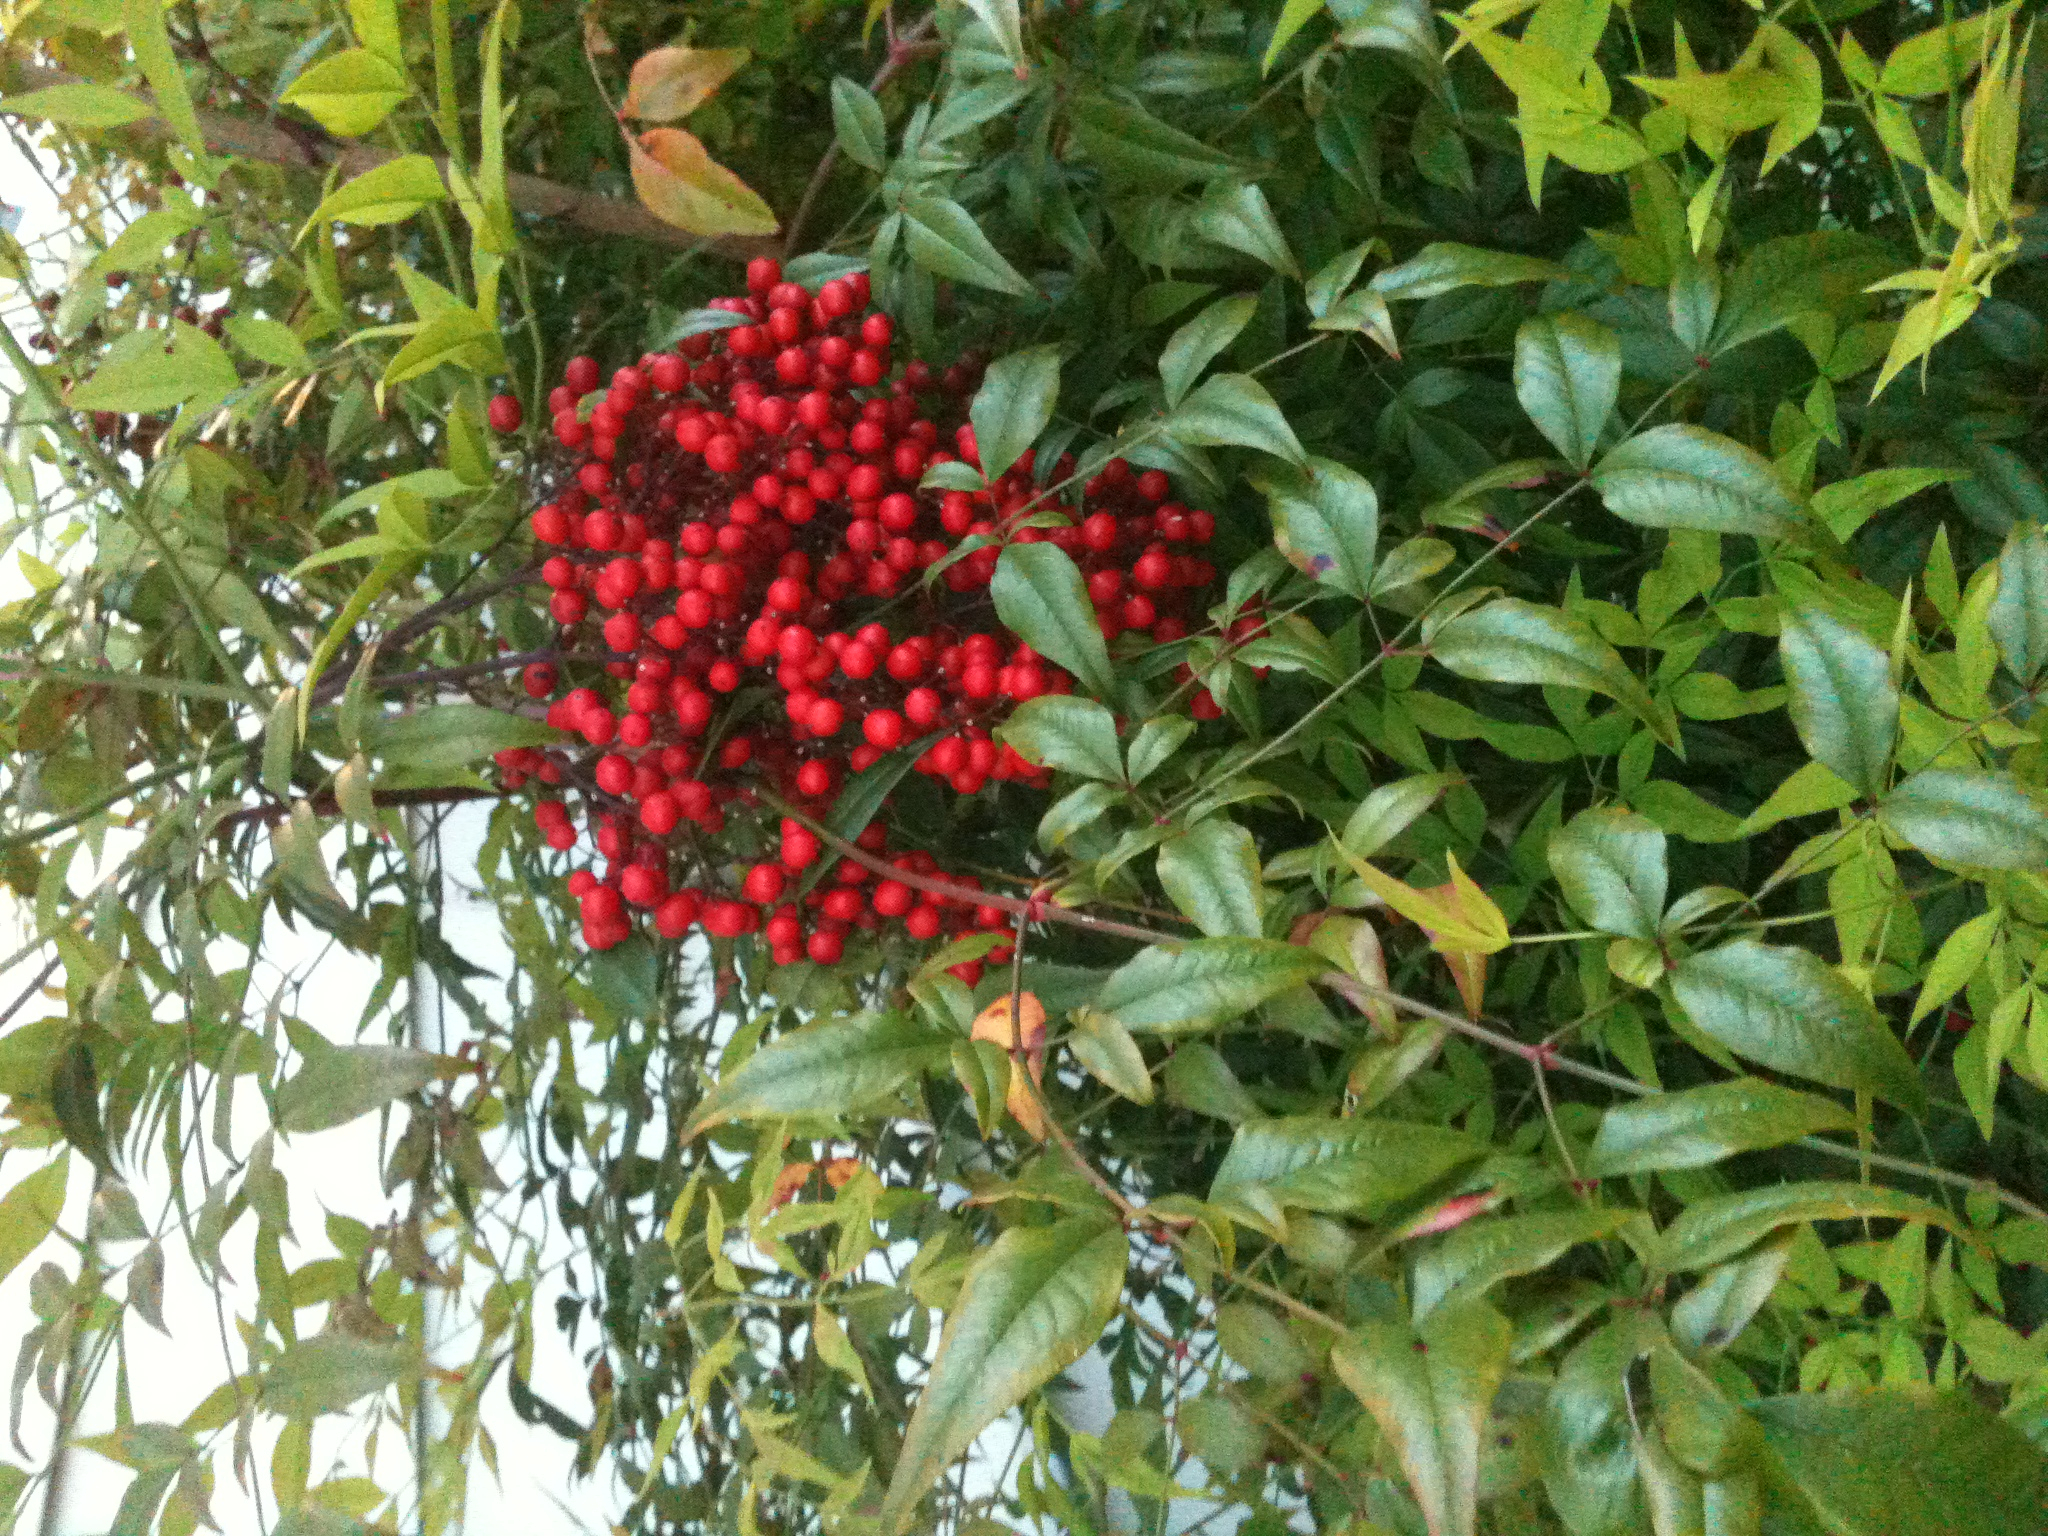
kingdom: Plantae
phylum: Tracheophyta
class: Magnoliopsida
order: Ranunculales
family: Berberidaceae
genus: Nandina
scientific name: Nandina domestica
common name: Sacred bamboo
